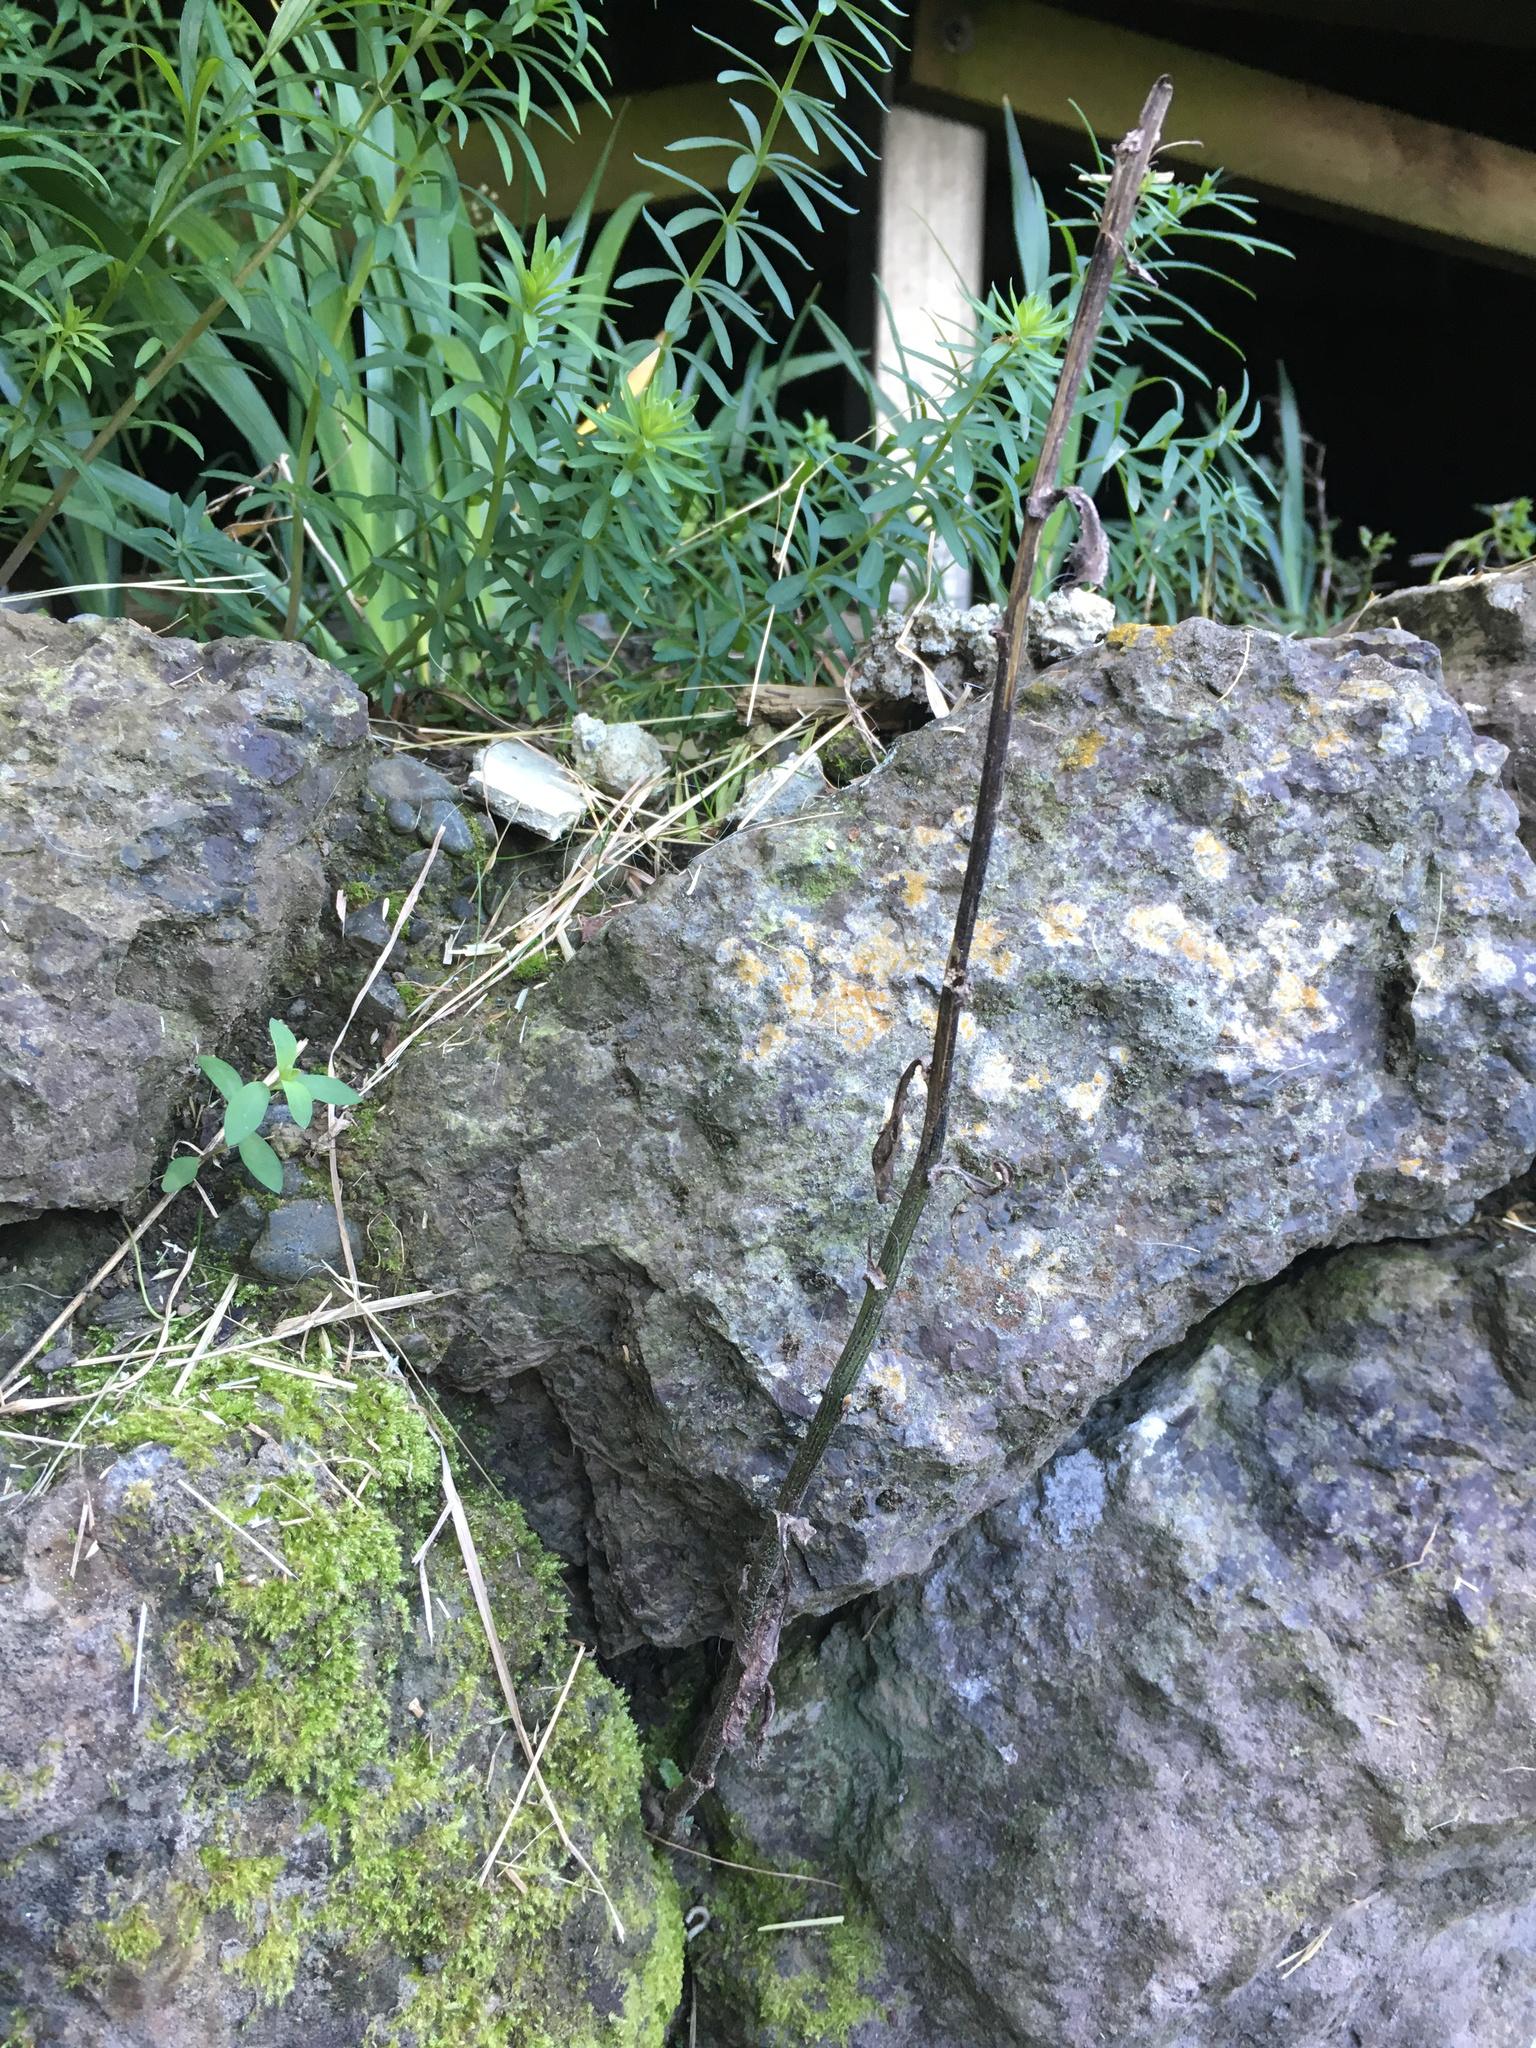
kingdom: Plantae
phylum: Tracheophyta
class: Magnoliopsida
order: Asterales
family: Asteraceae
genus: Senecio
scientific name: Senecio minimus
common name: Toothed fireweed
